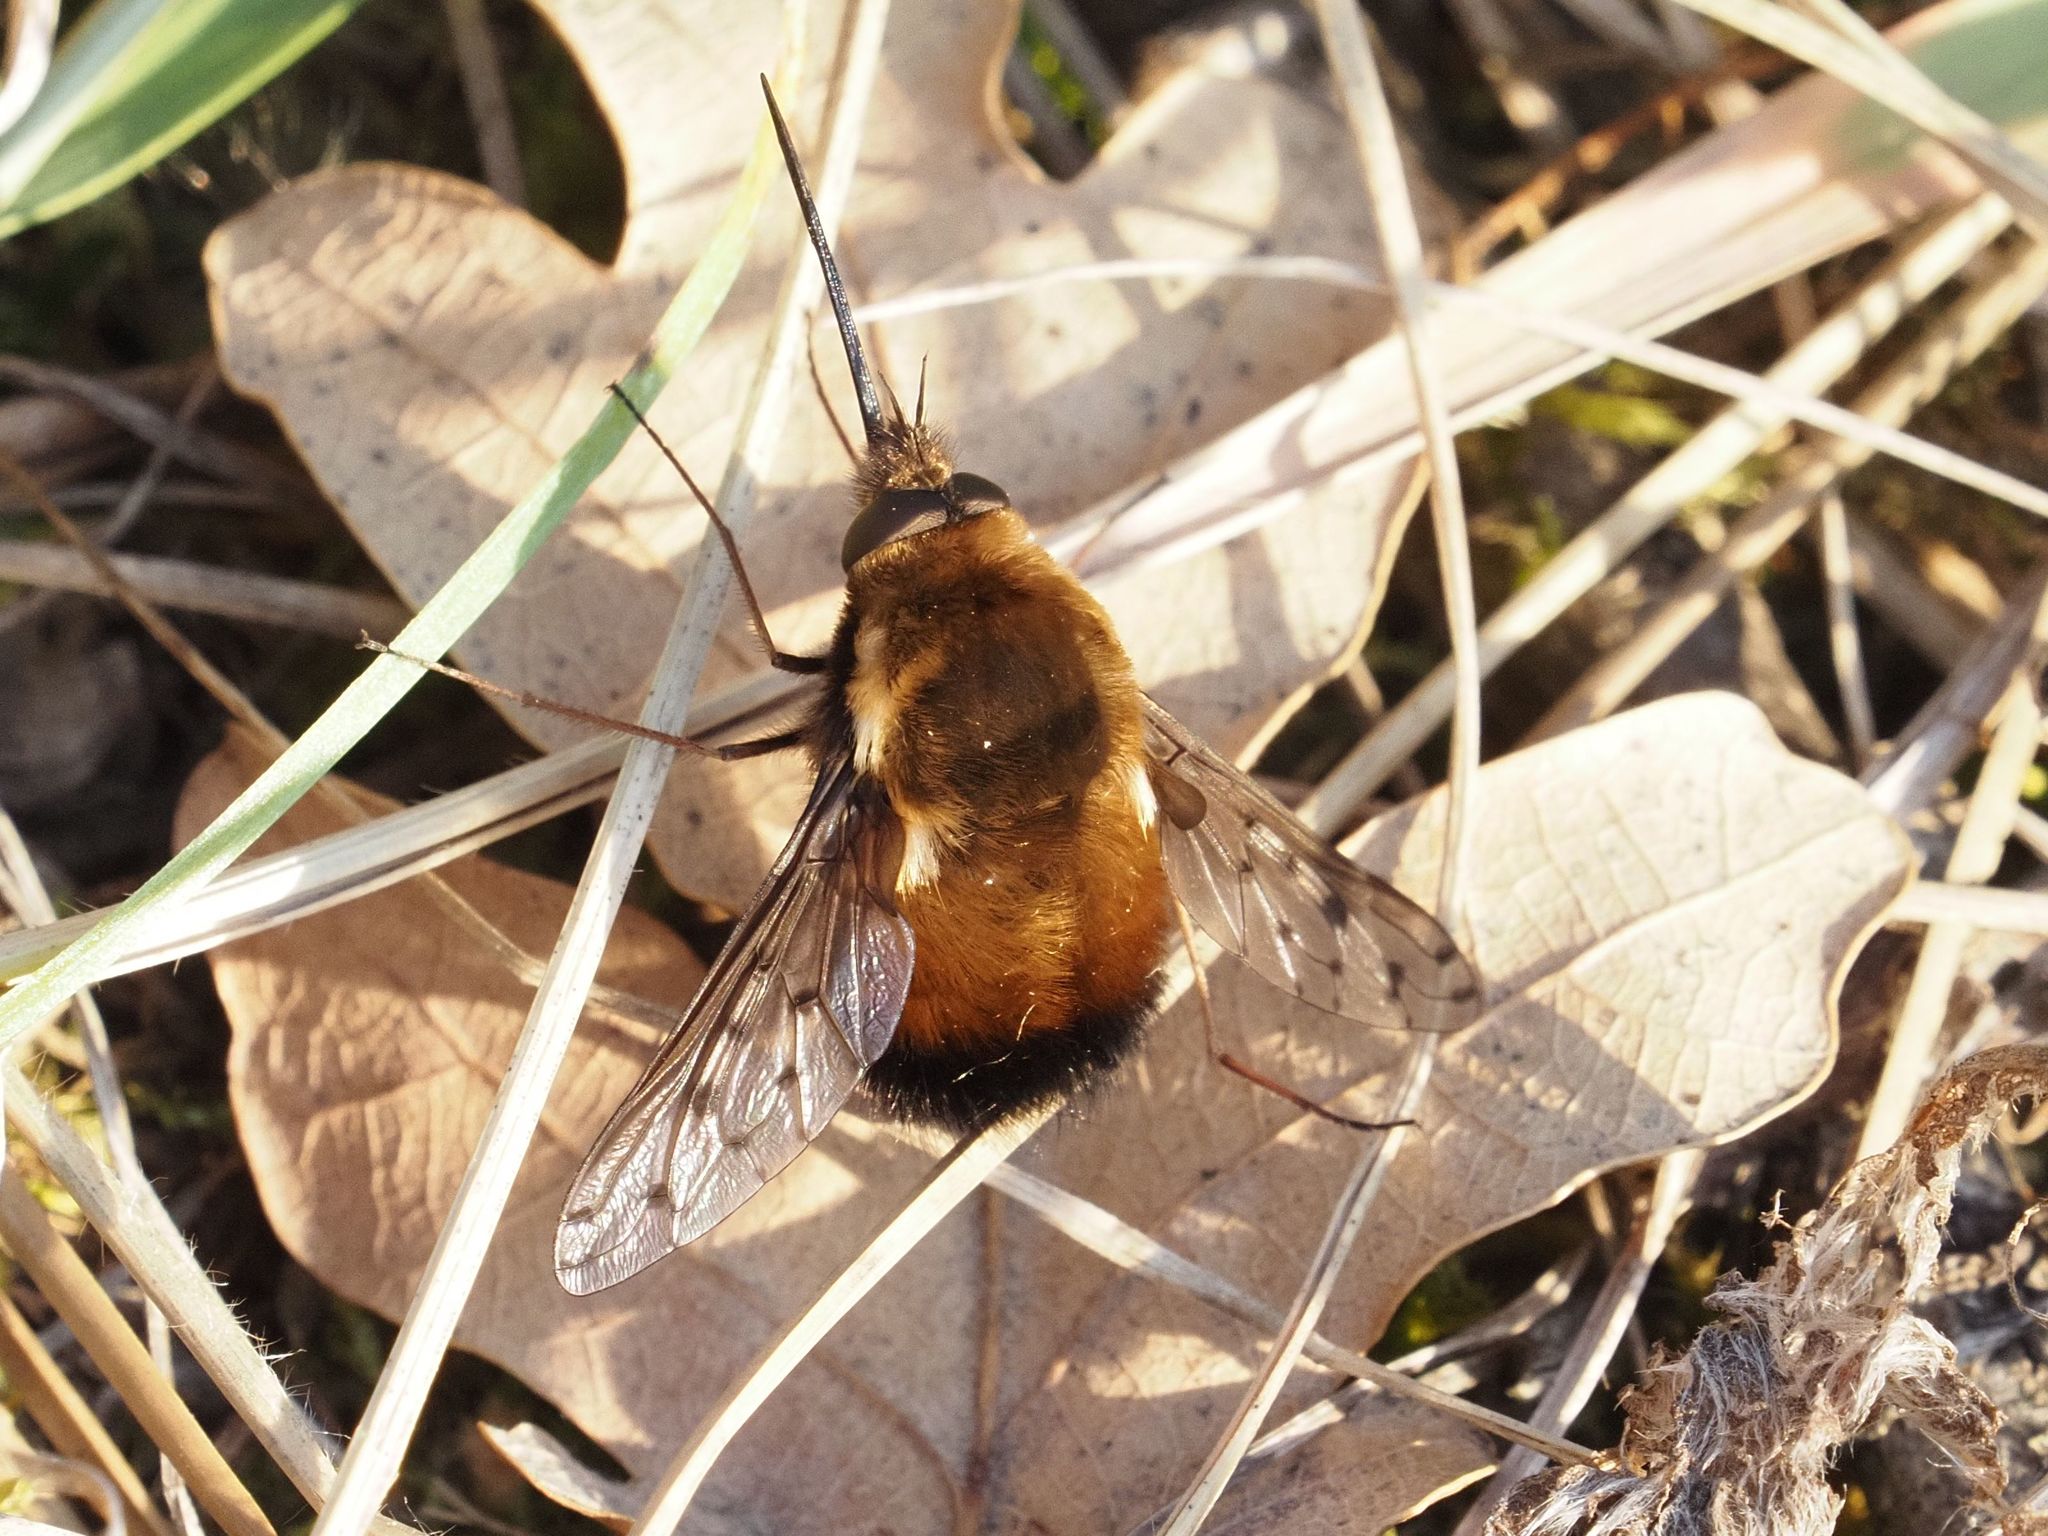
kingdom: Animalia
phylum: Arthropoda
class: Insecta
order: Diptera
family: Bombyliidae
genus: Bombylius
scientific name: Bombylius discolor
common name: Dotted bee-fly
